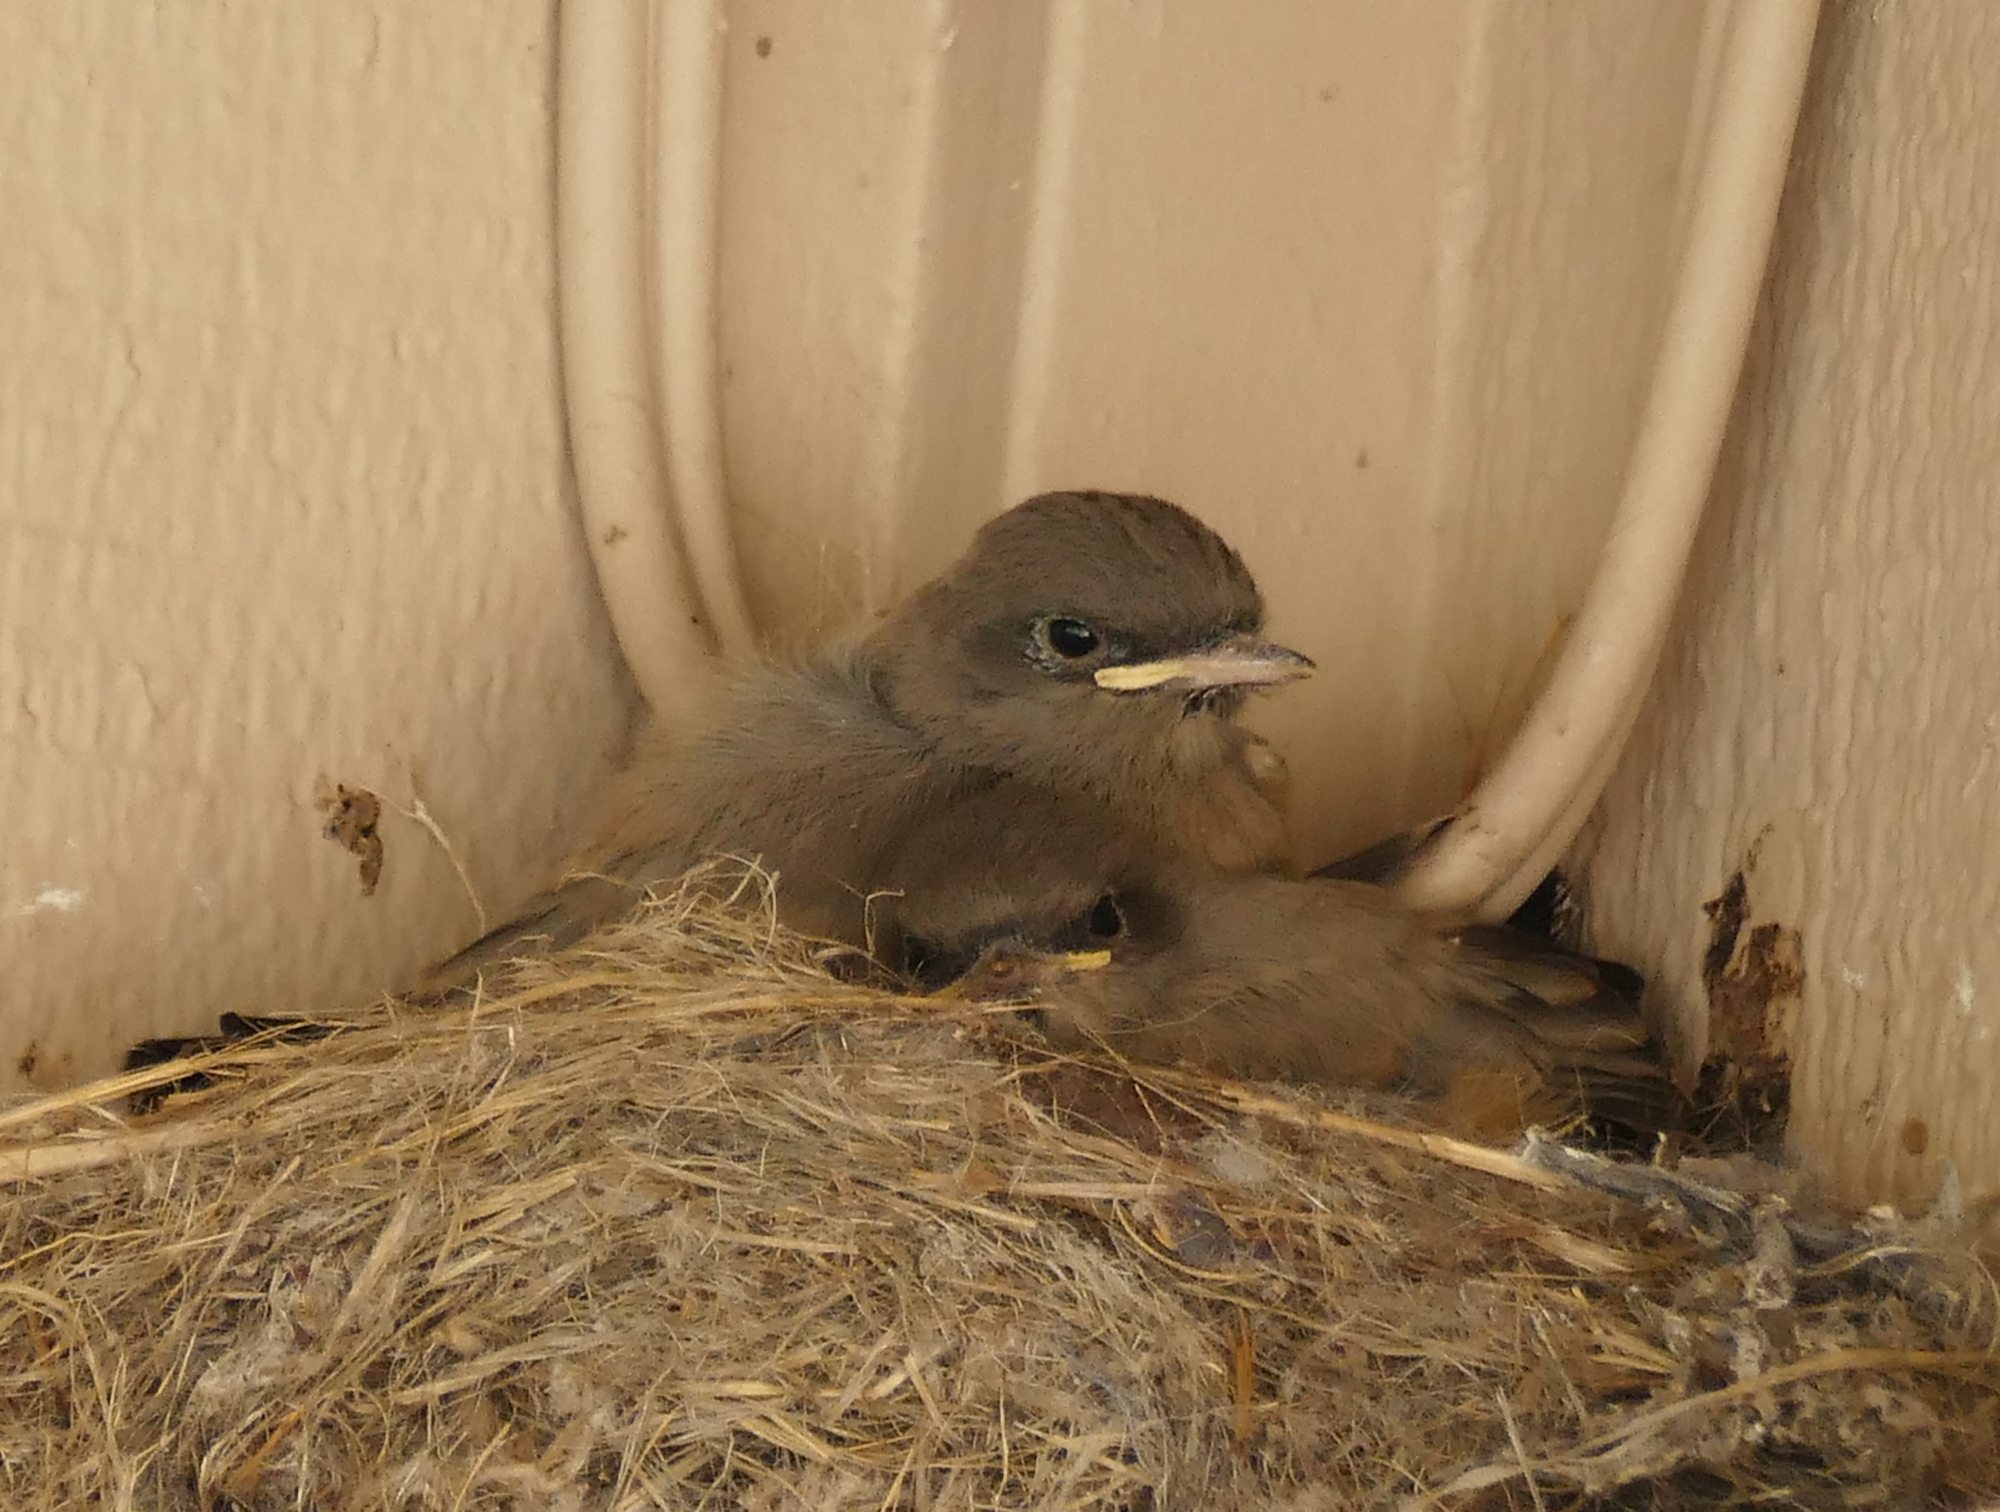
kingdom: Animalia
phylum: Chordata
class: Aves
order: Passeriformes
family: Tyrannidae
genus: Sayornis
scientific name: Sayornis saya
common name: Say's phoebe
